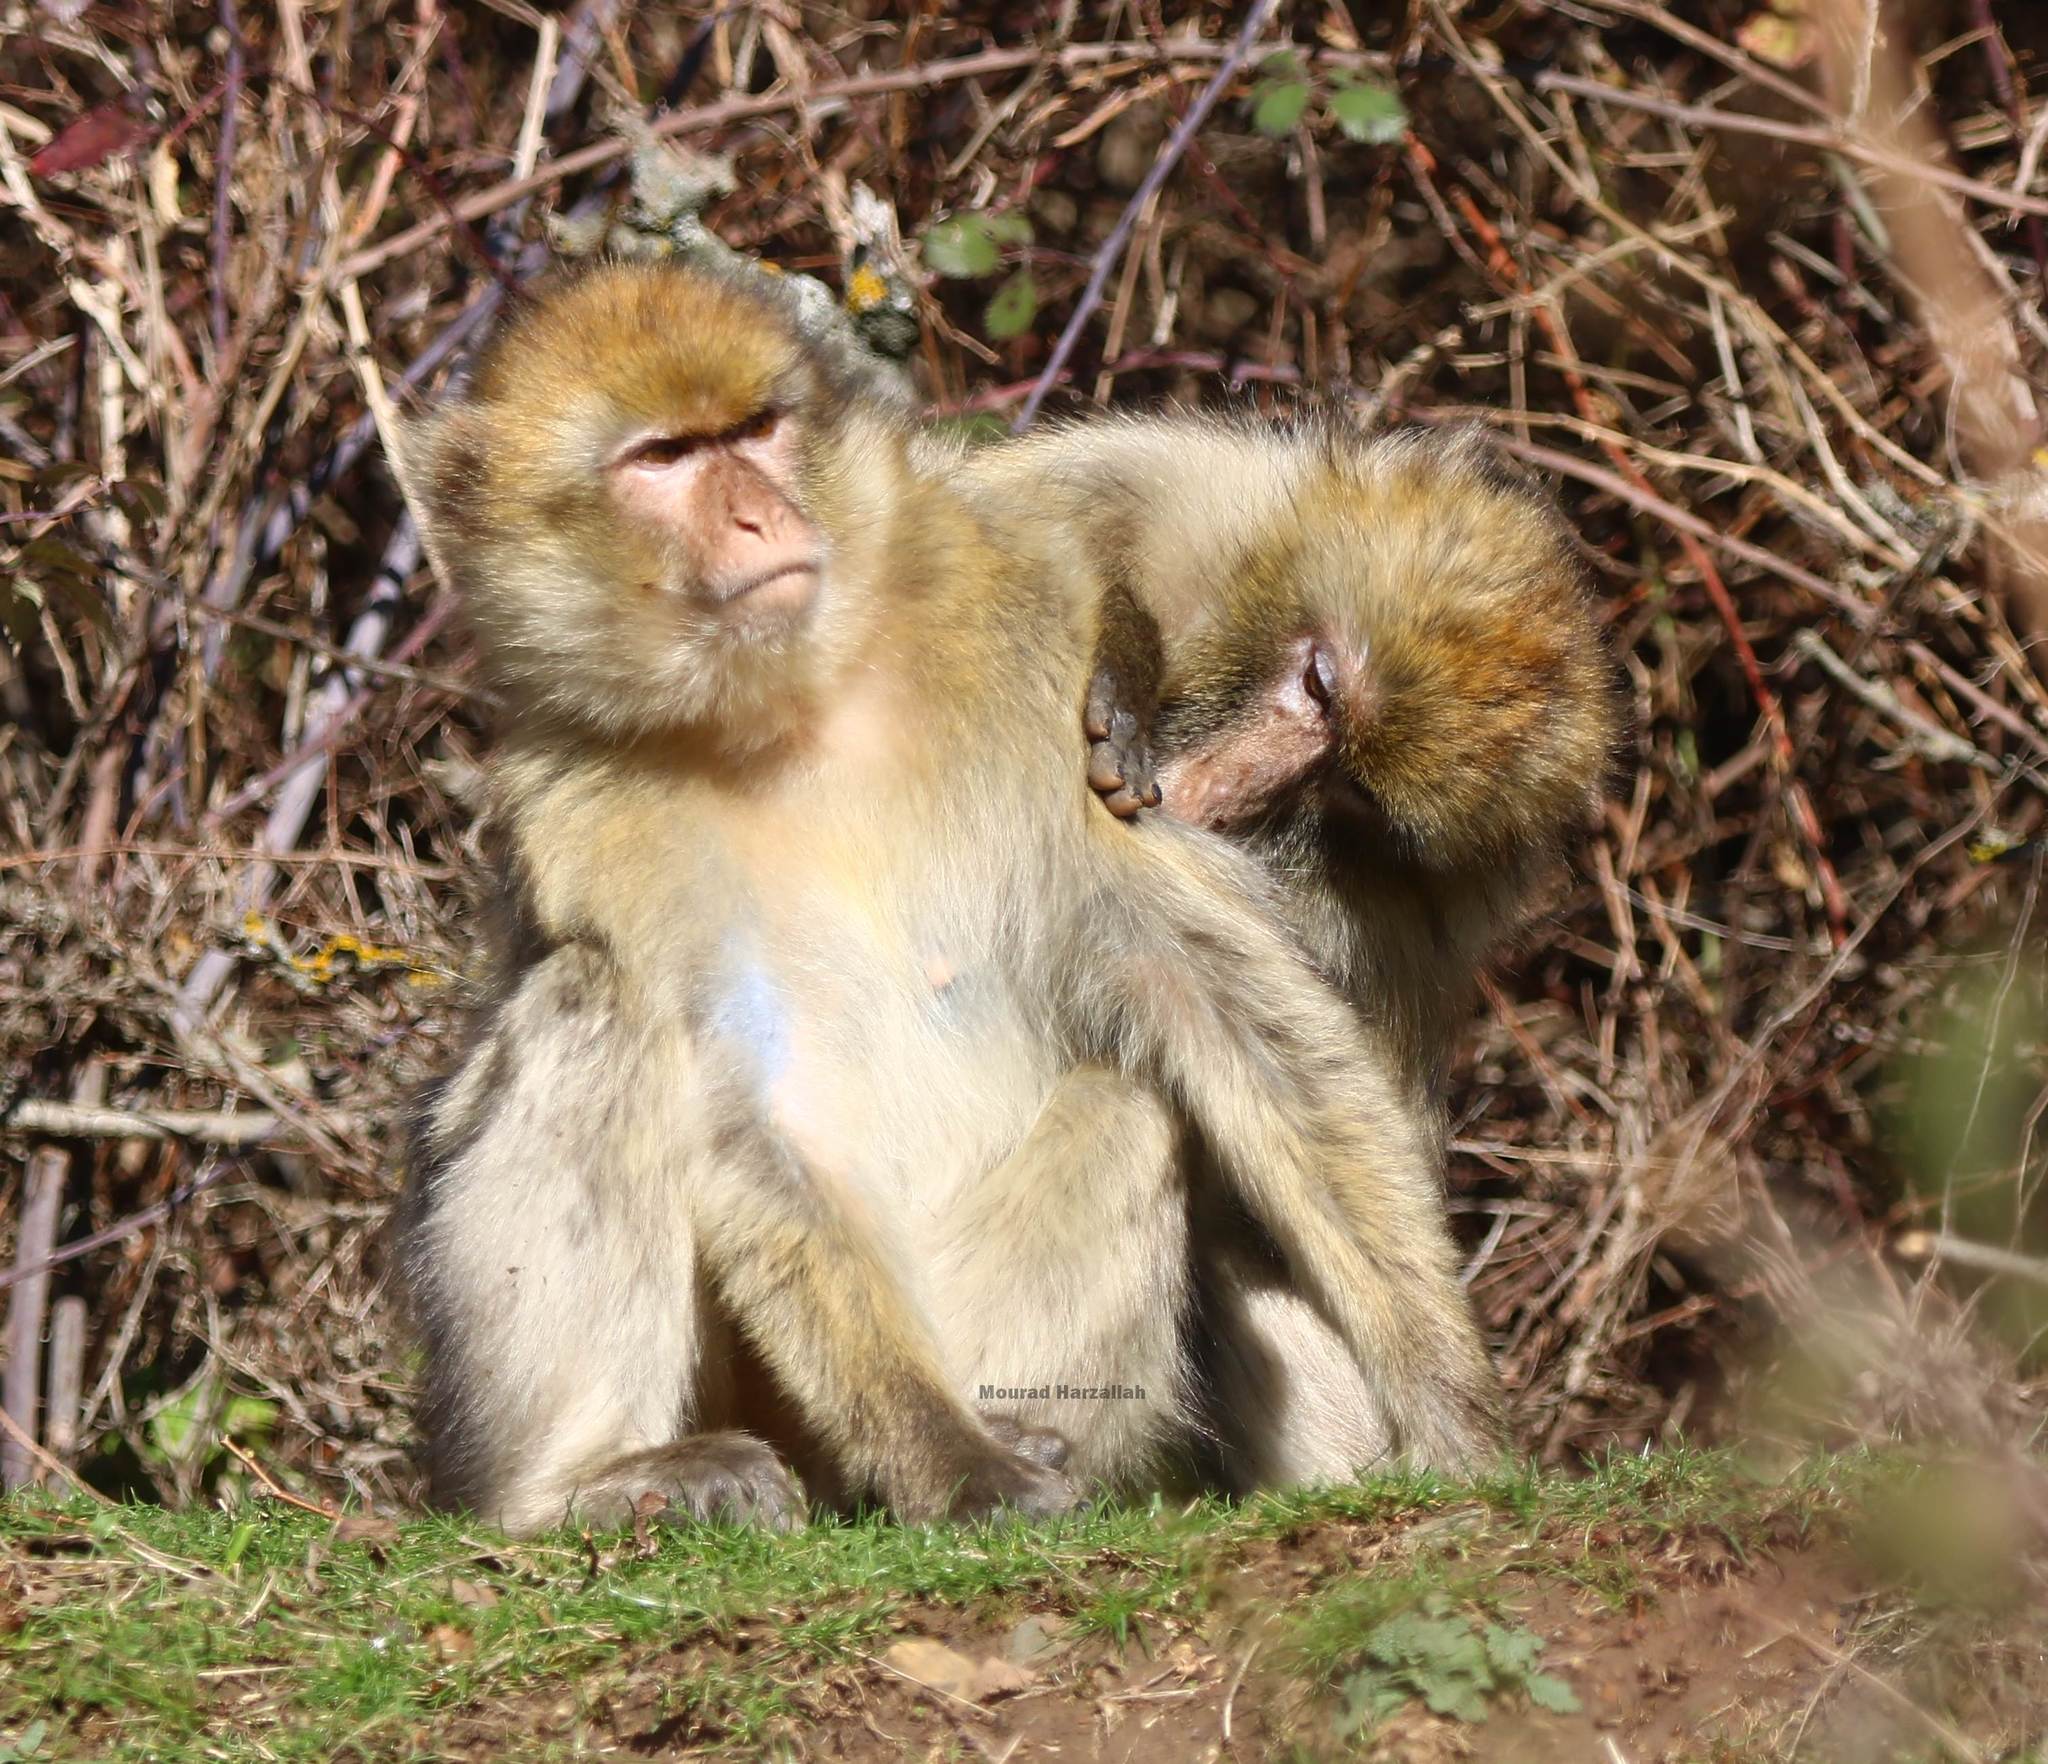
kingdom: Animalia
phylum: Chordata
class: Mammalia
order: Primates
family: Cercopithecidae
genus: Macaca
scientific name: Macaca sylvanus
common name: Barbary macaque
